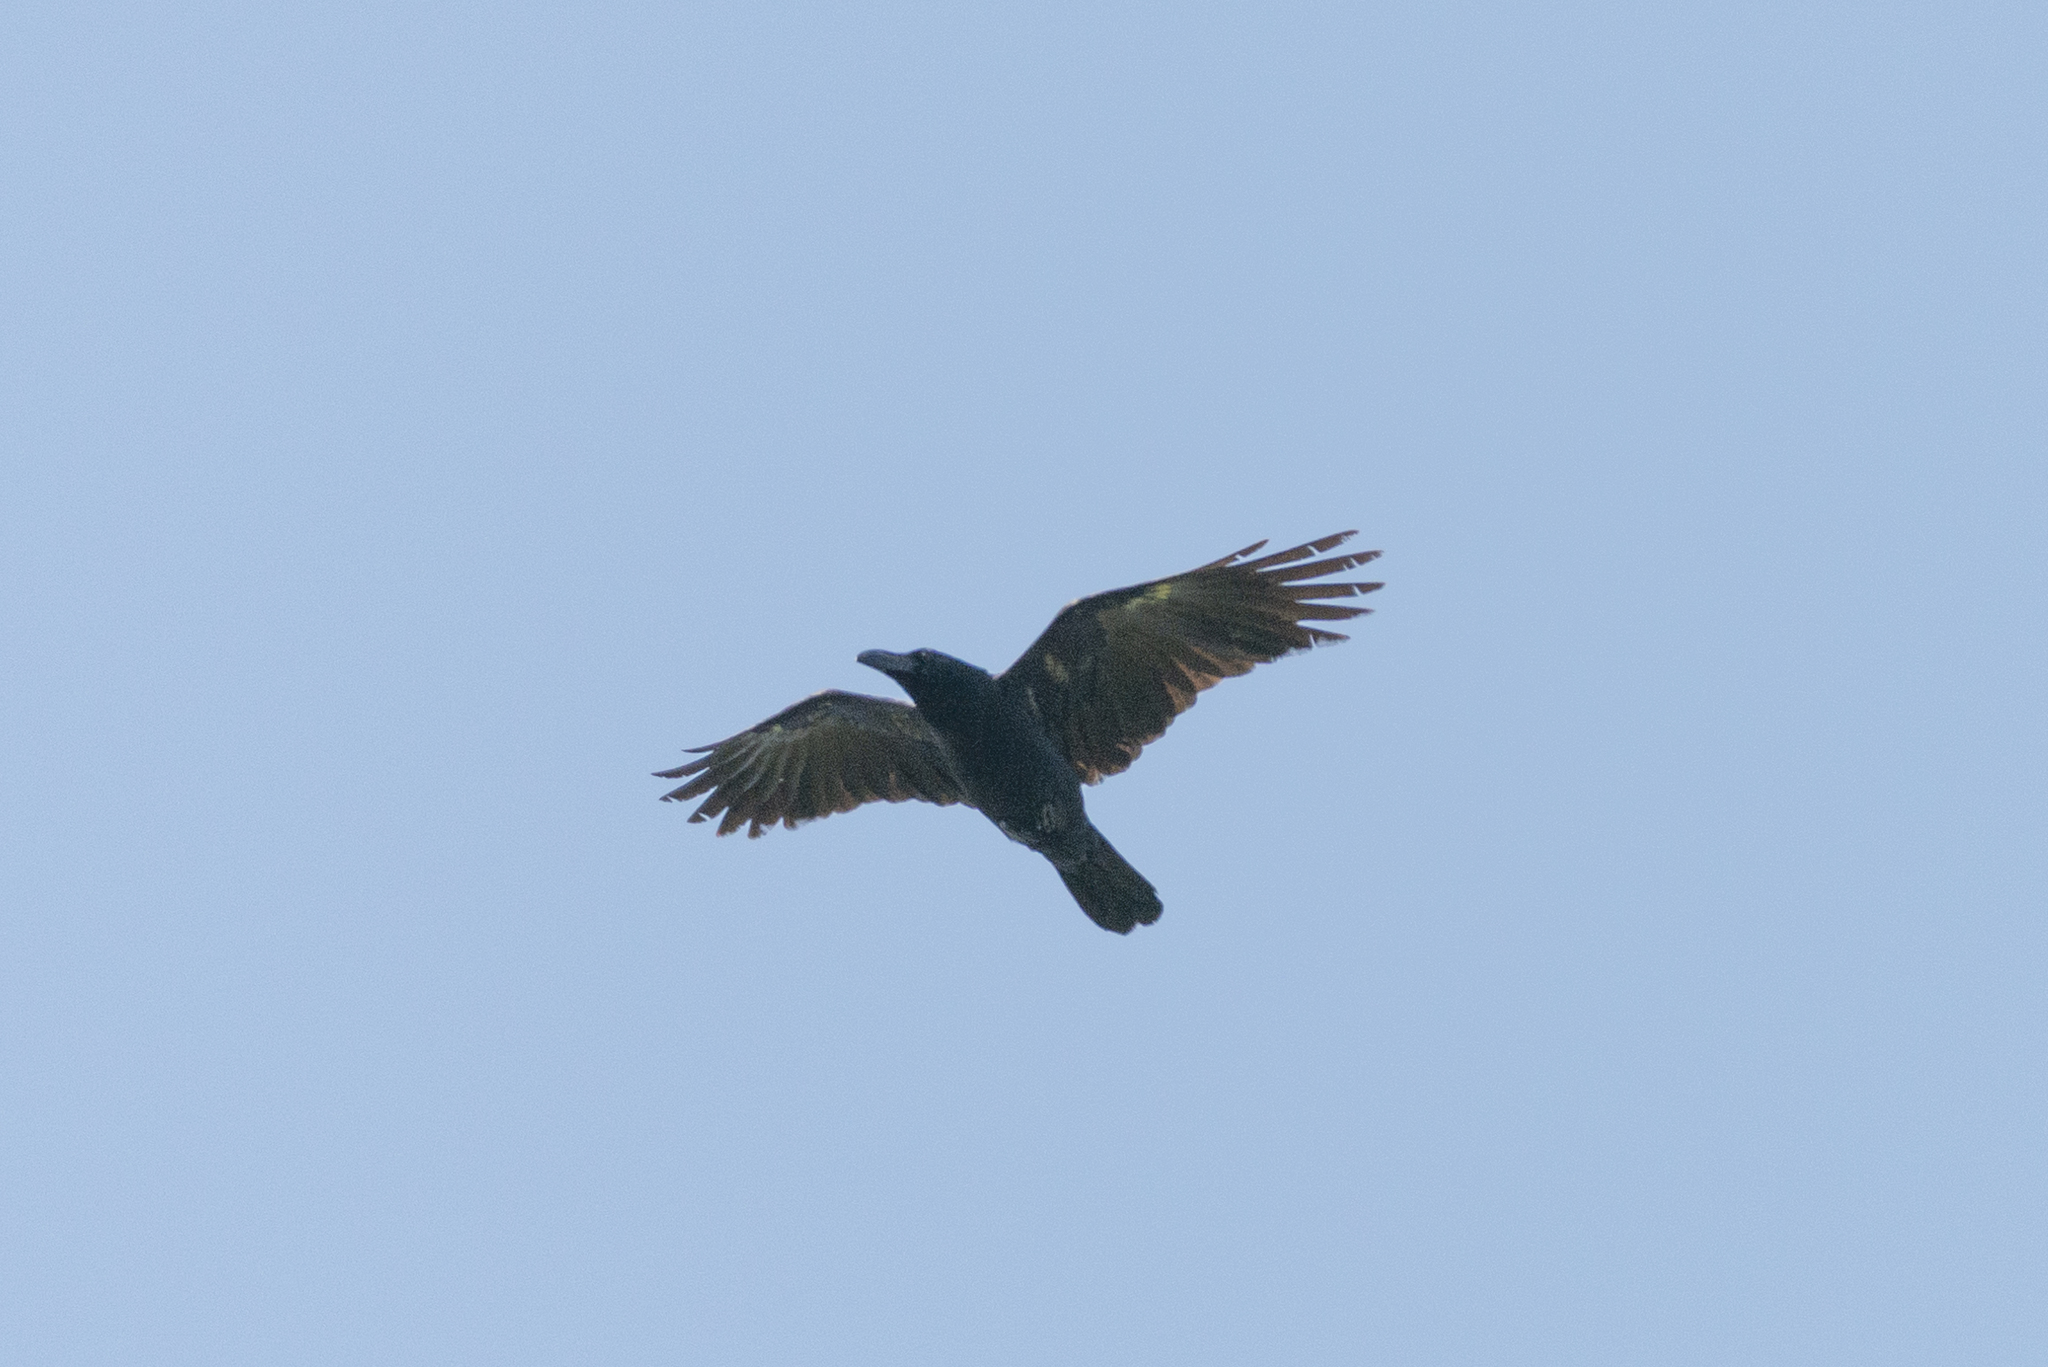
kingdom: Animalia
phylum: Chordata
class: Aves
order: Passeriformes
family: Corvidae
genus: Corvus
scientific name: Corvus macrorhynchos
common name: Large-billed crow
